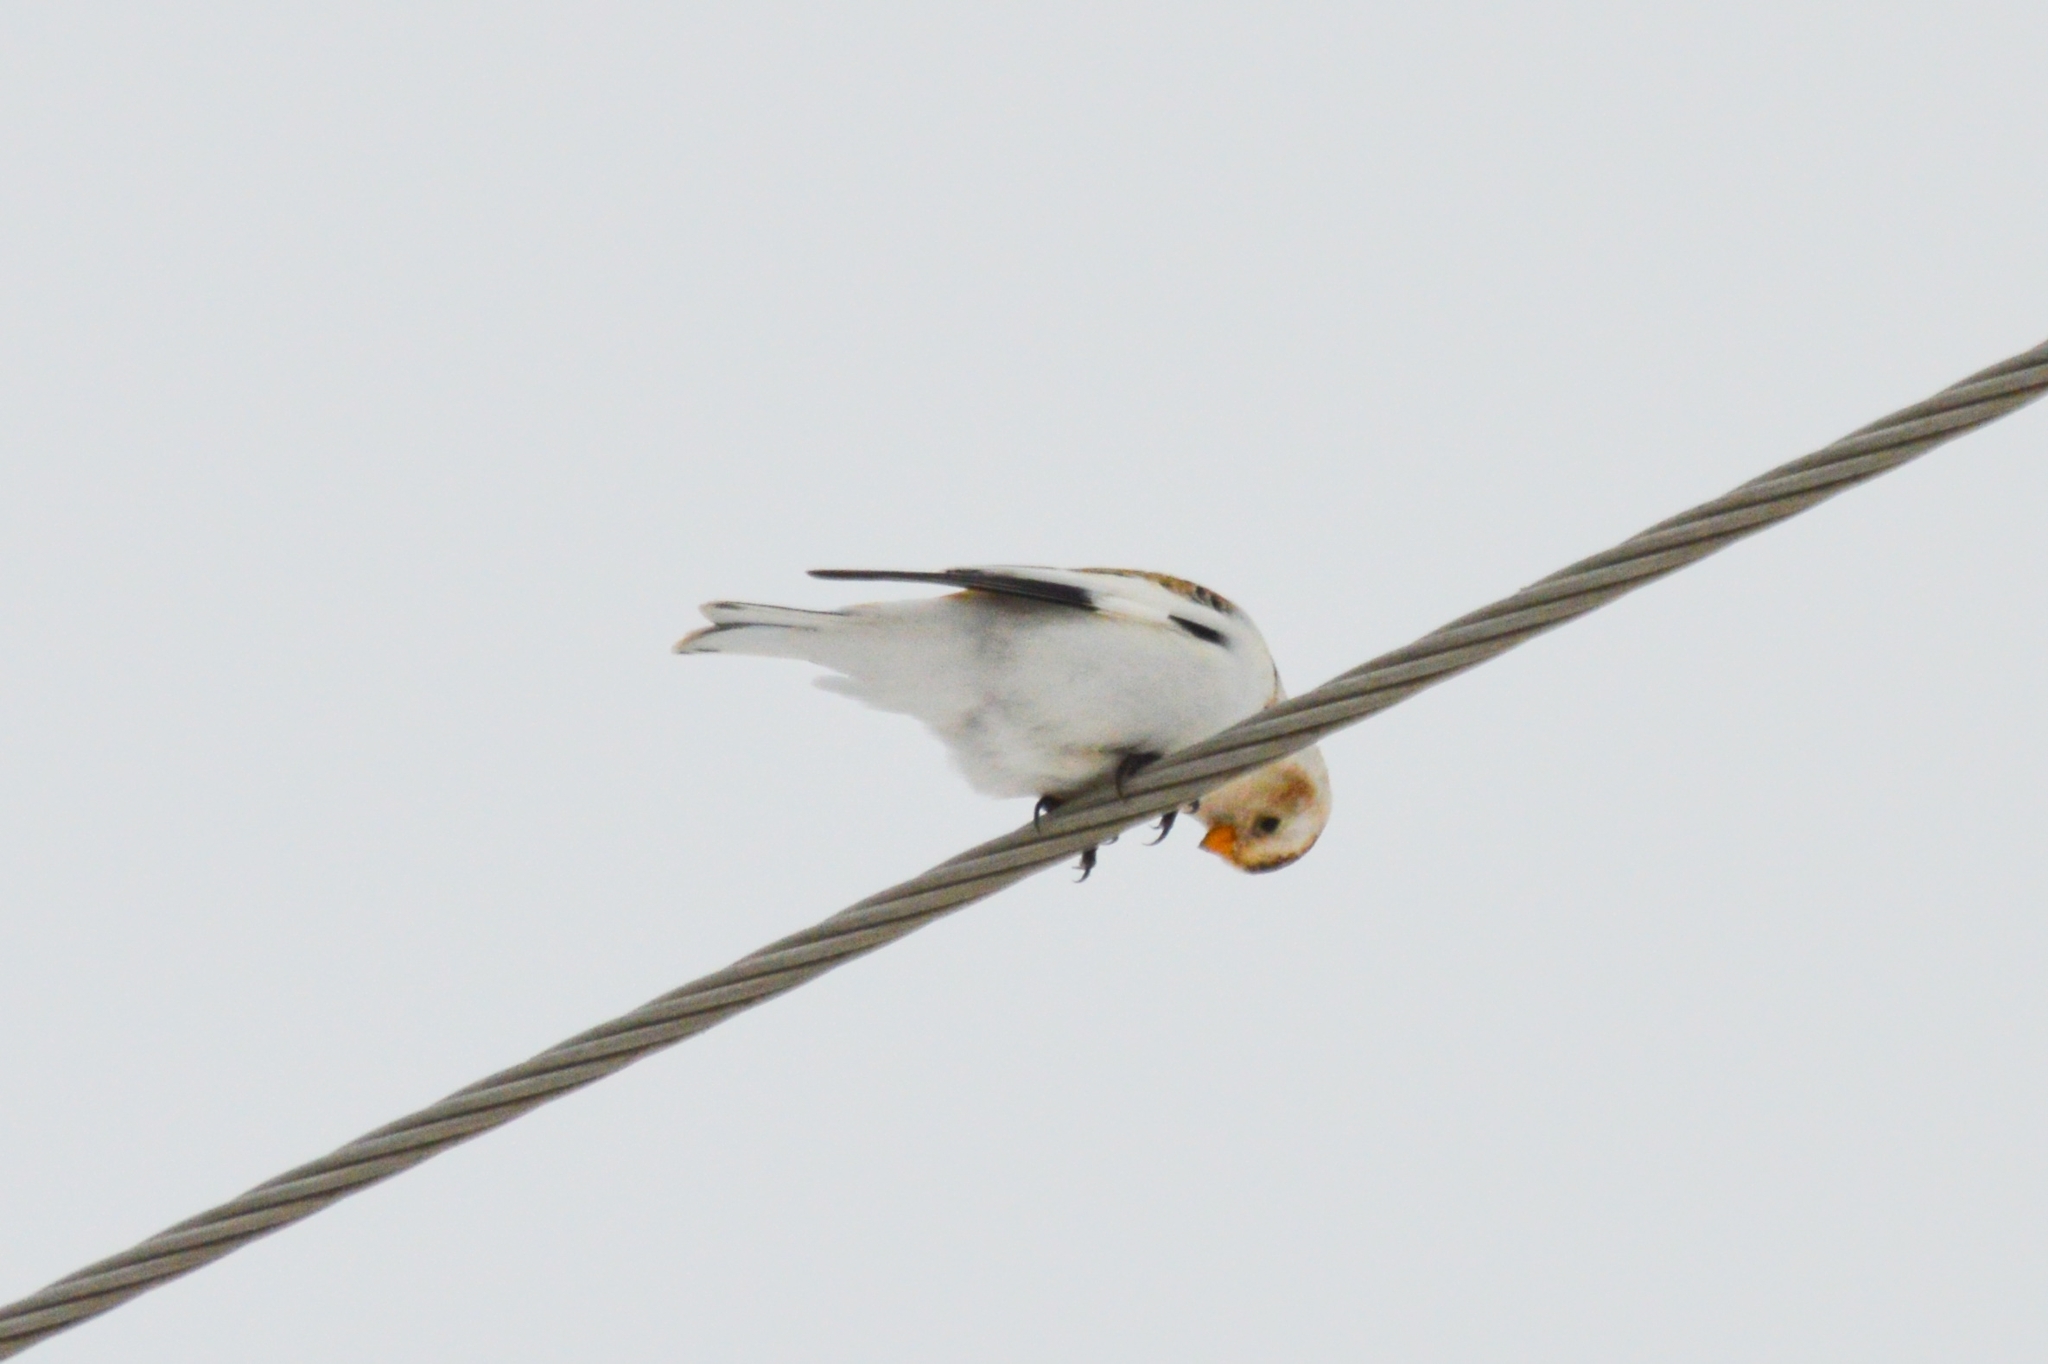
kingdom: Animalia
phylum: Chordata
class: Aves
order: Passeriformes
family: Calcariidae
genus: Plectrophenax
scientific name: Plectrophenax nivalis
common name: Snow bunting
